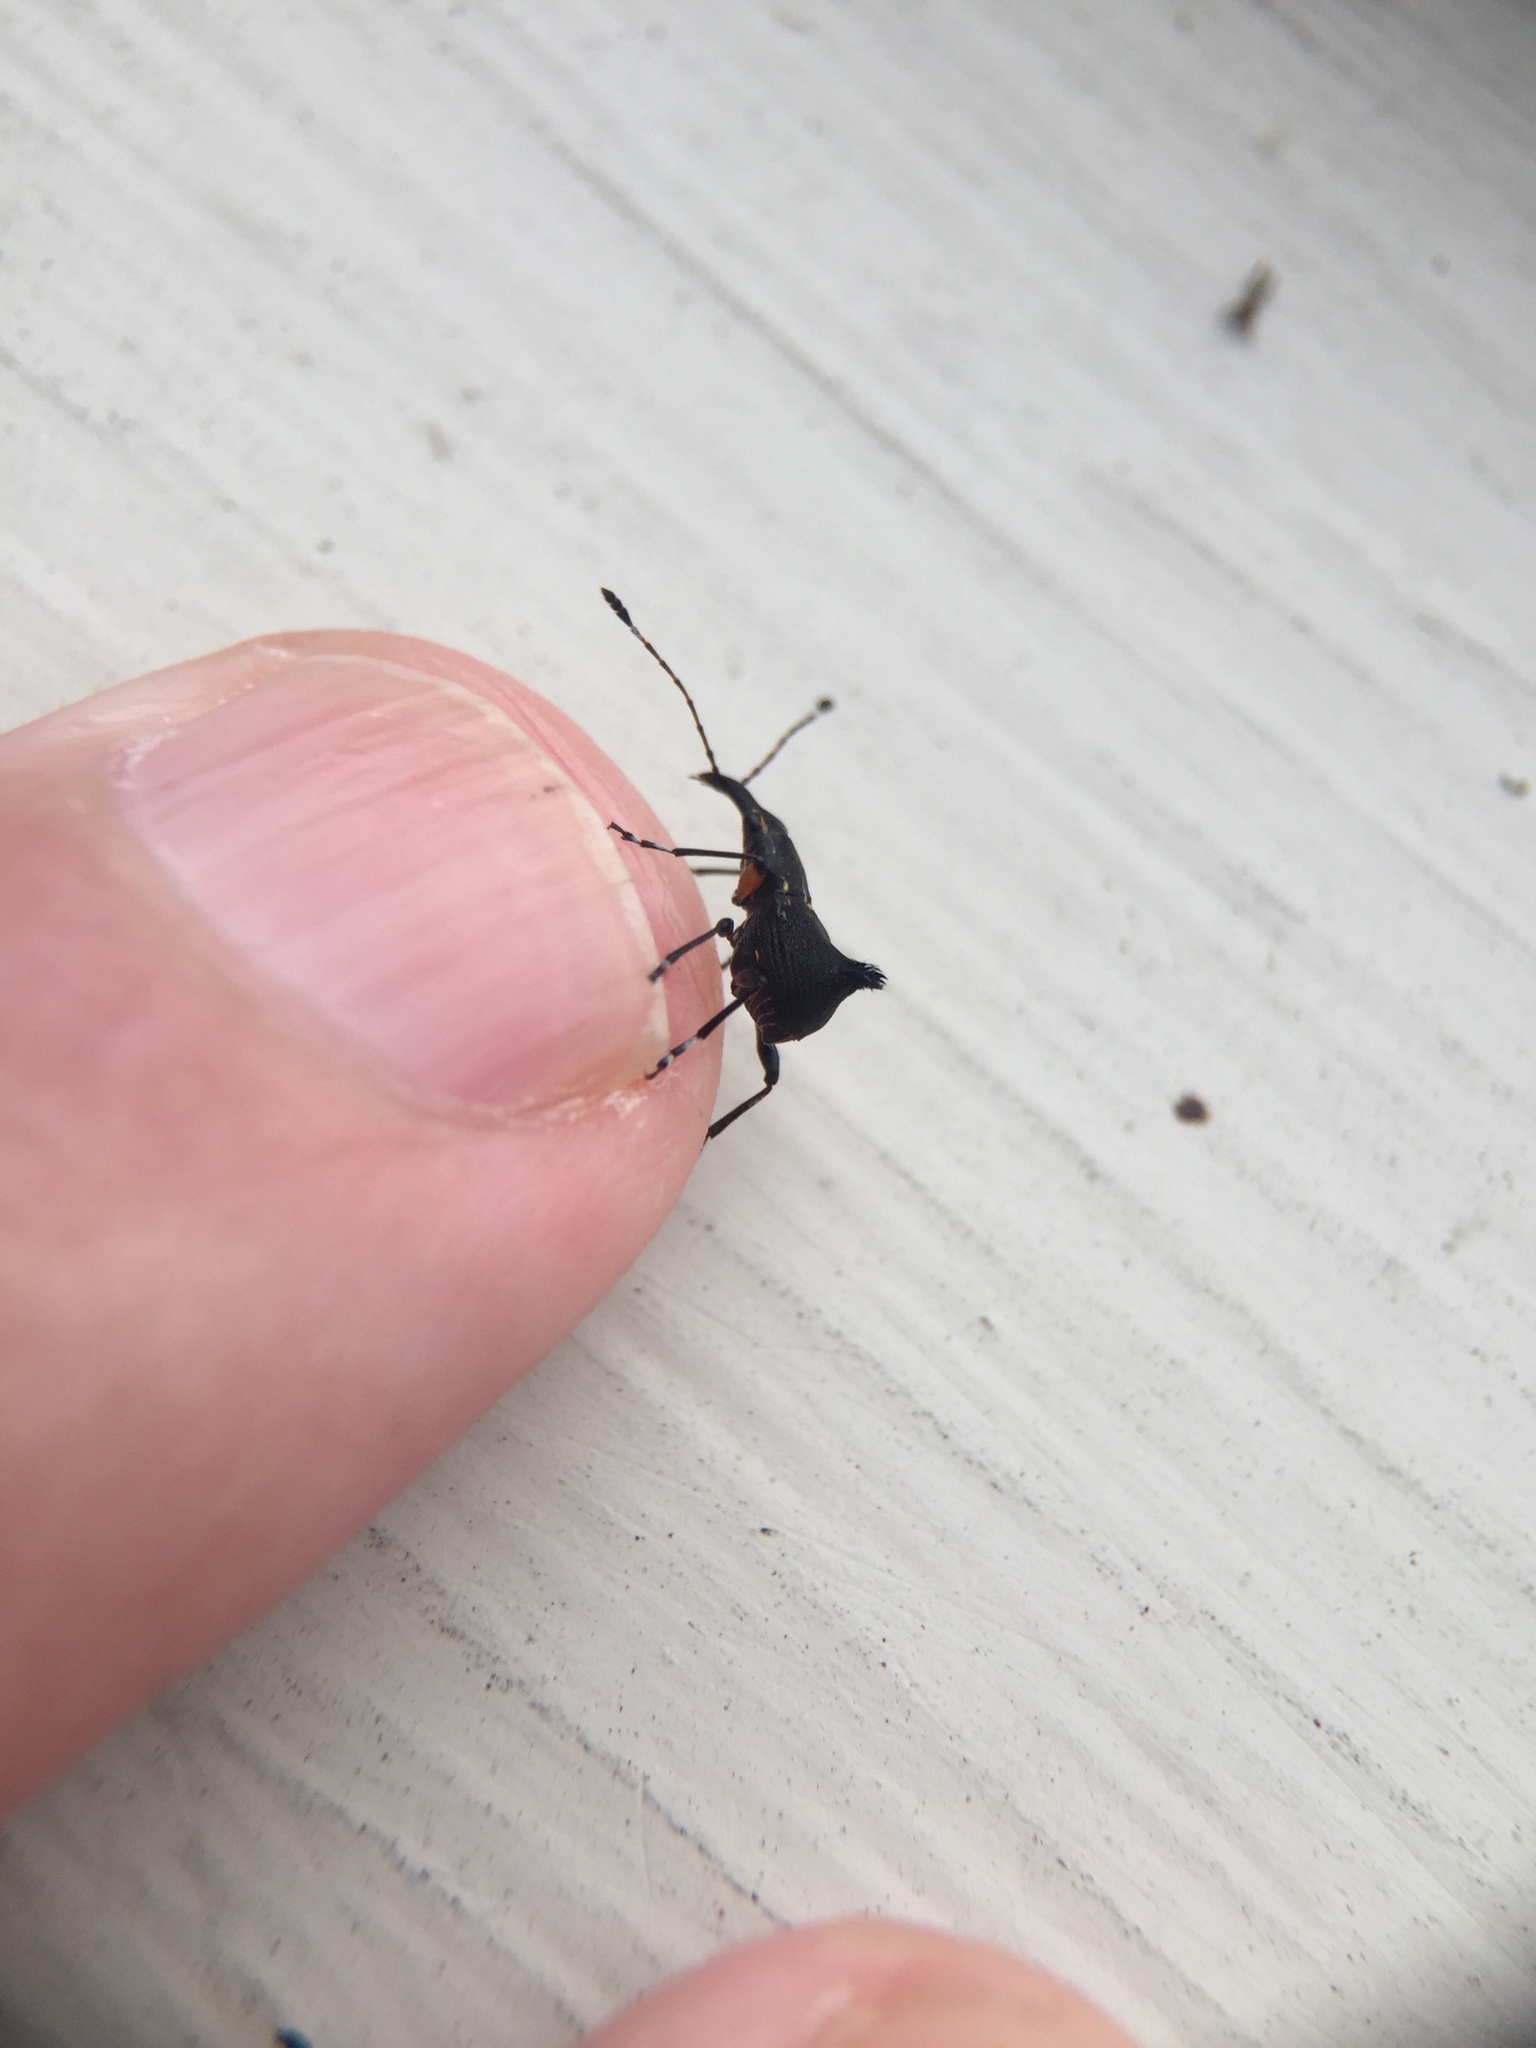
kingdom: Animalia
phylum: Arthropoda
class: Insecta
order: Coleoptera
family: Anthribidae
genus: Hoplorhaphus
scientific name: Hoplorhaphus
